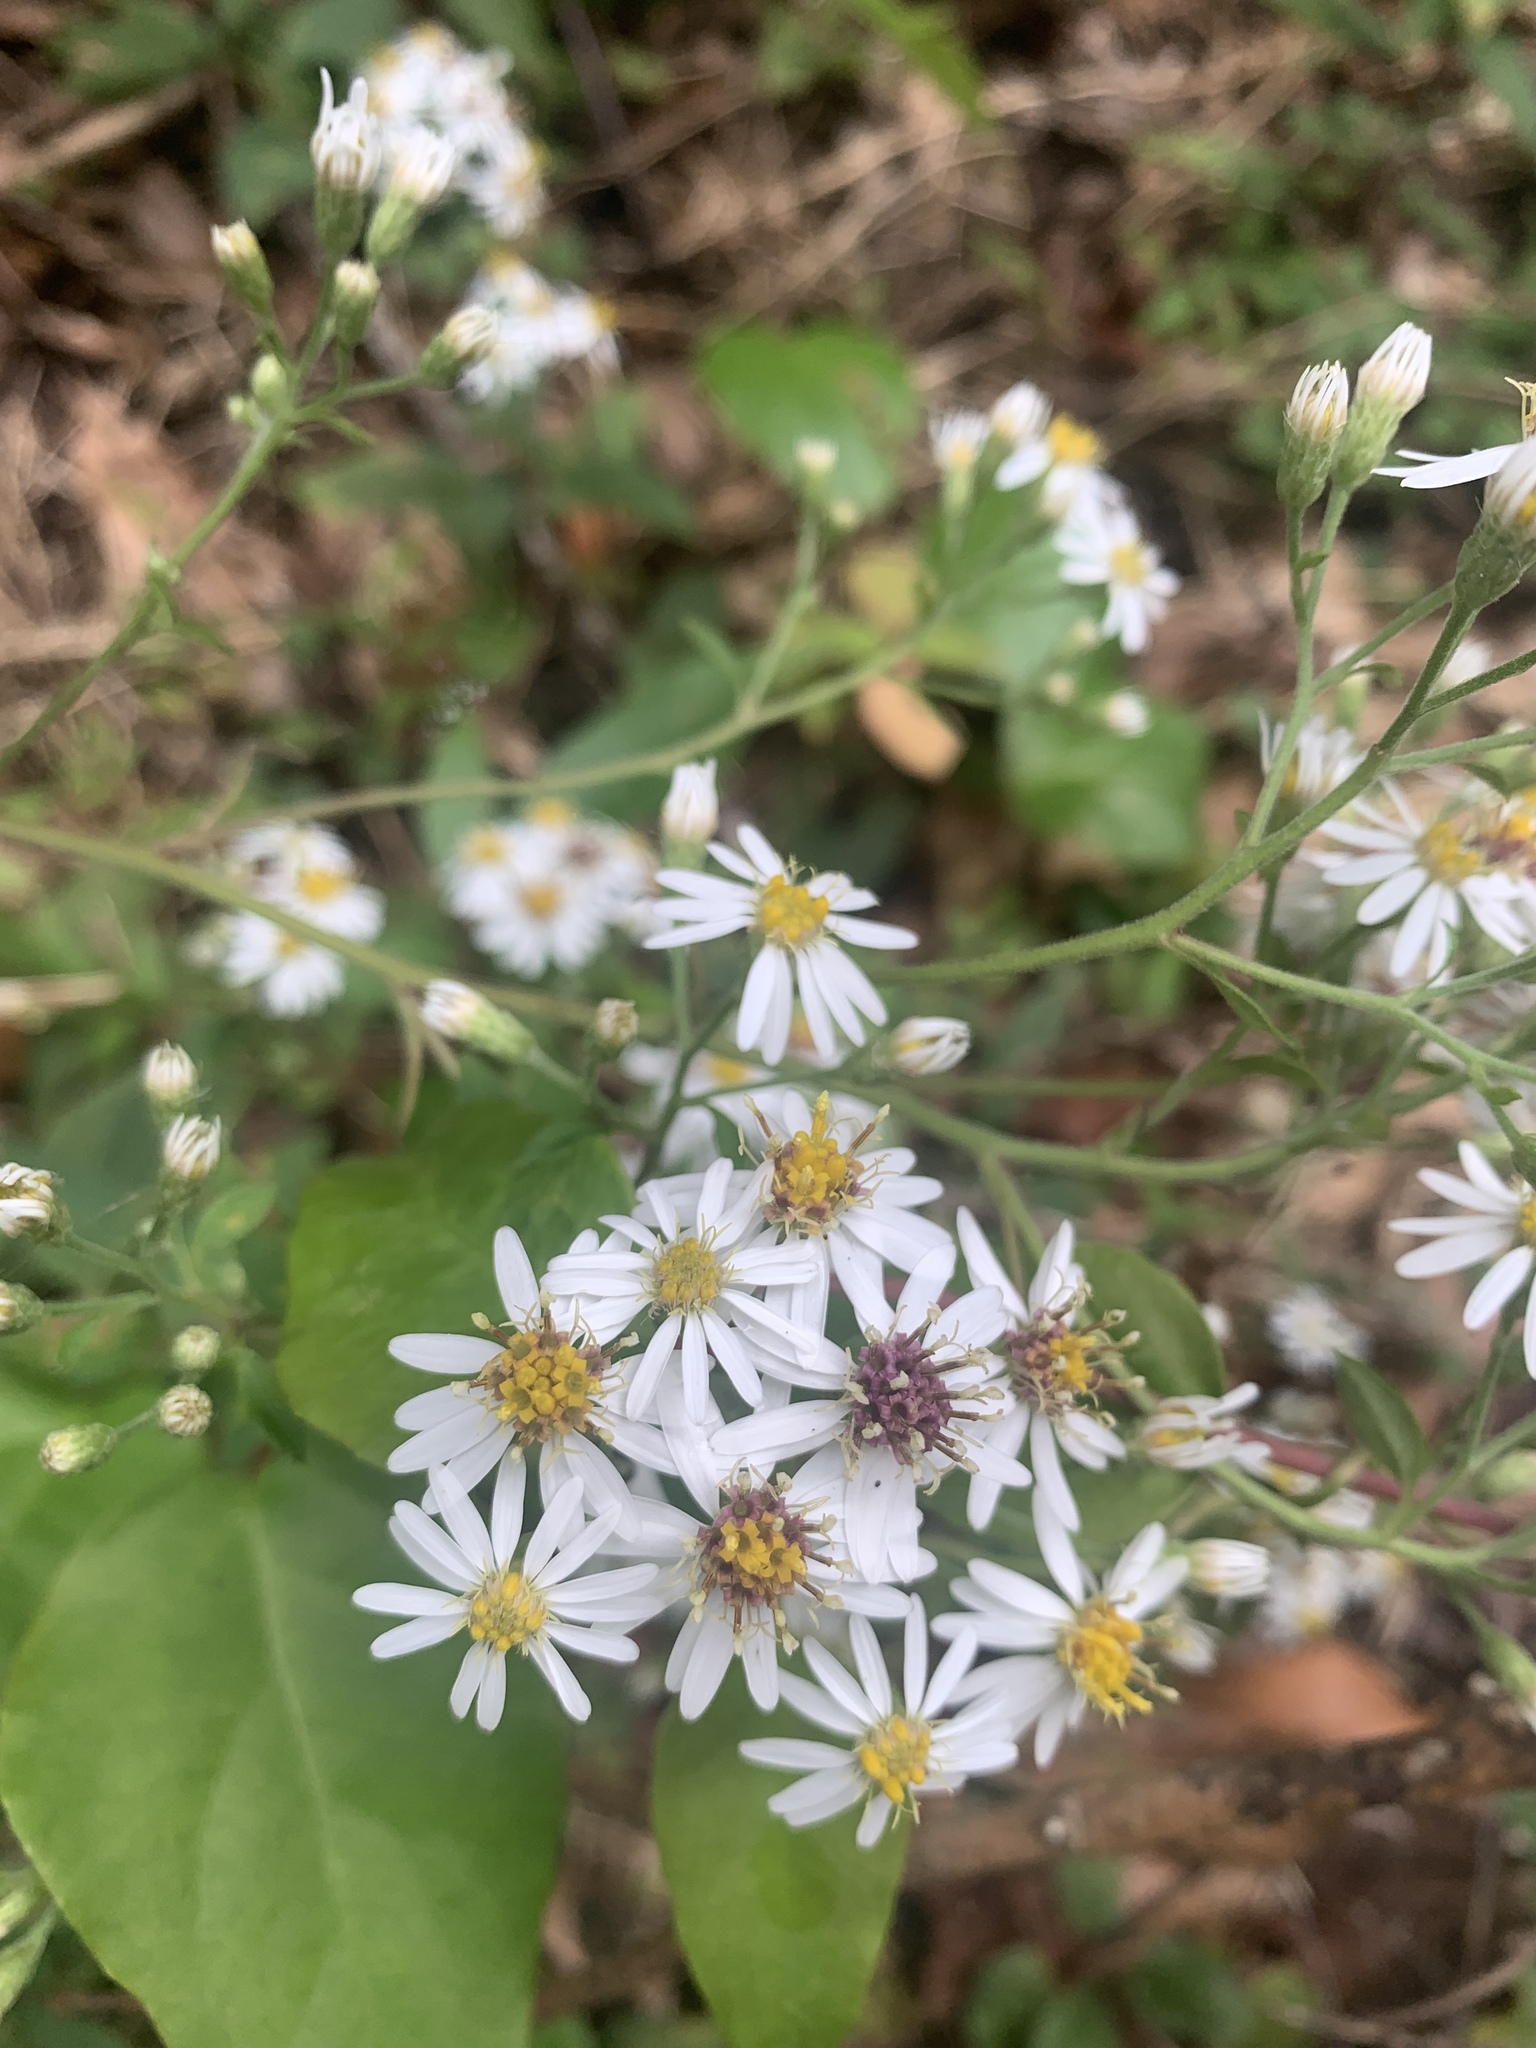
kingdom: Plantae
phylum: Tracheophyta
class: Magnoliopsida
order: Asterales
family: Asteraceae
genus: Aster
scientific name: Aster ageratoides
